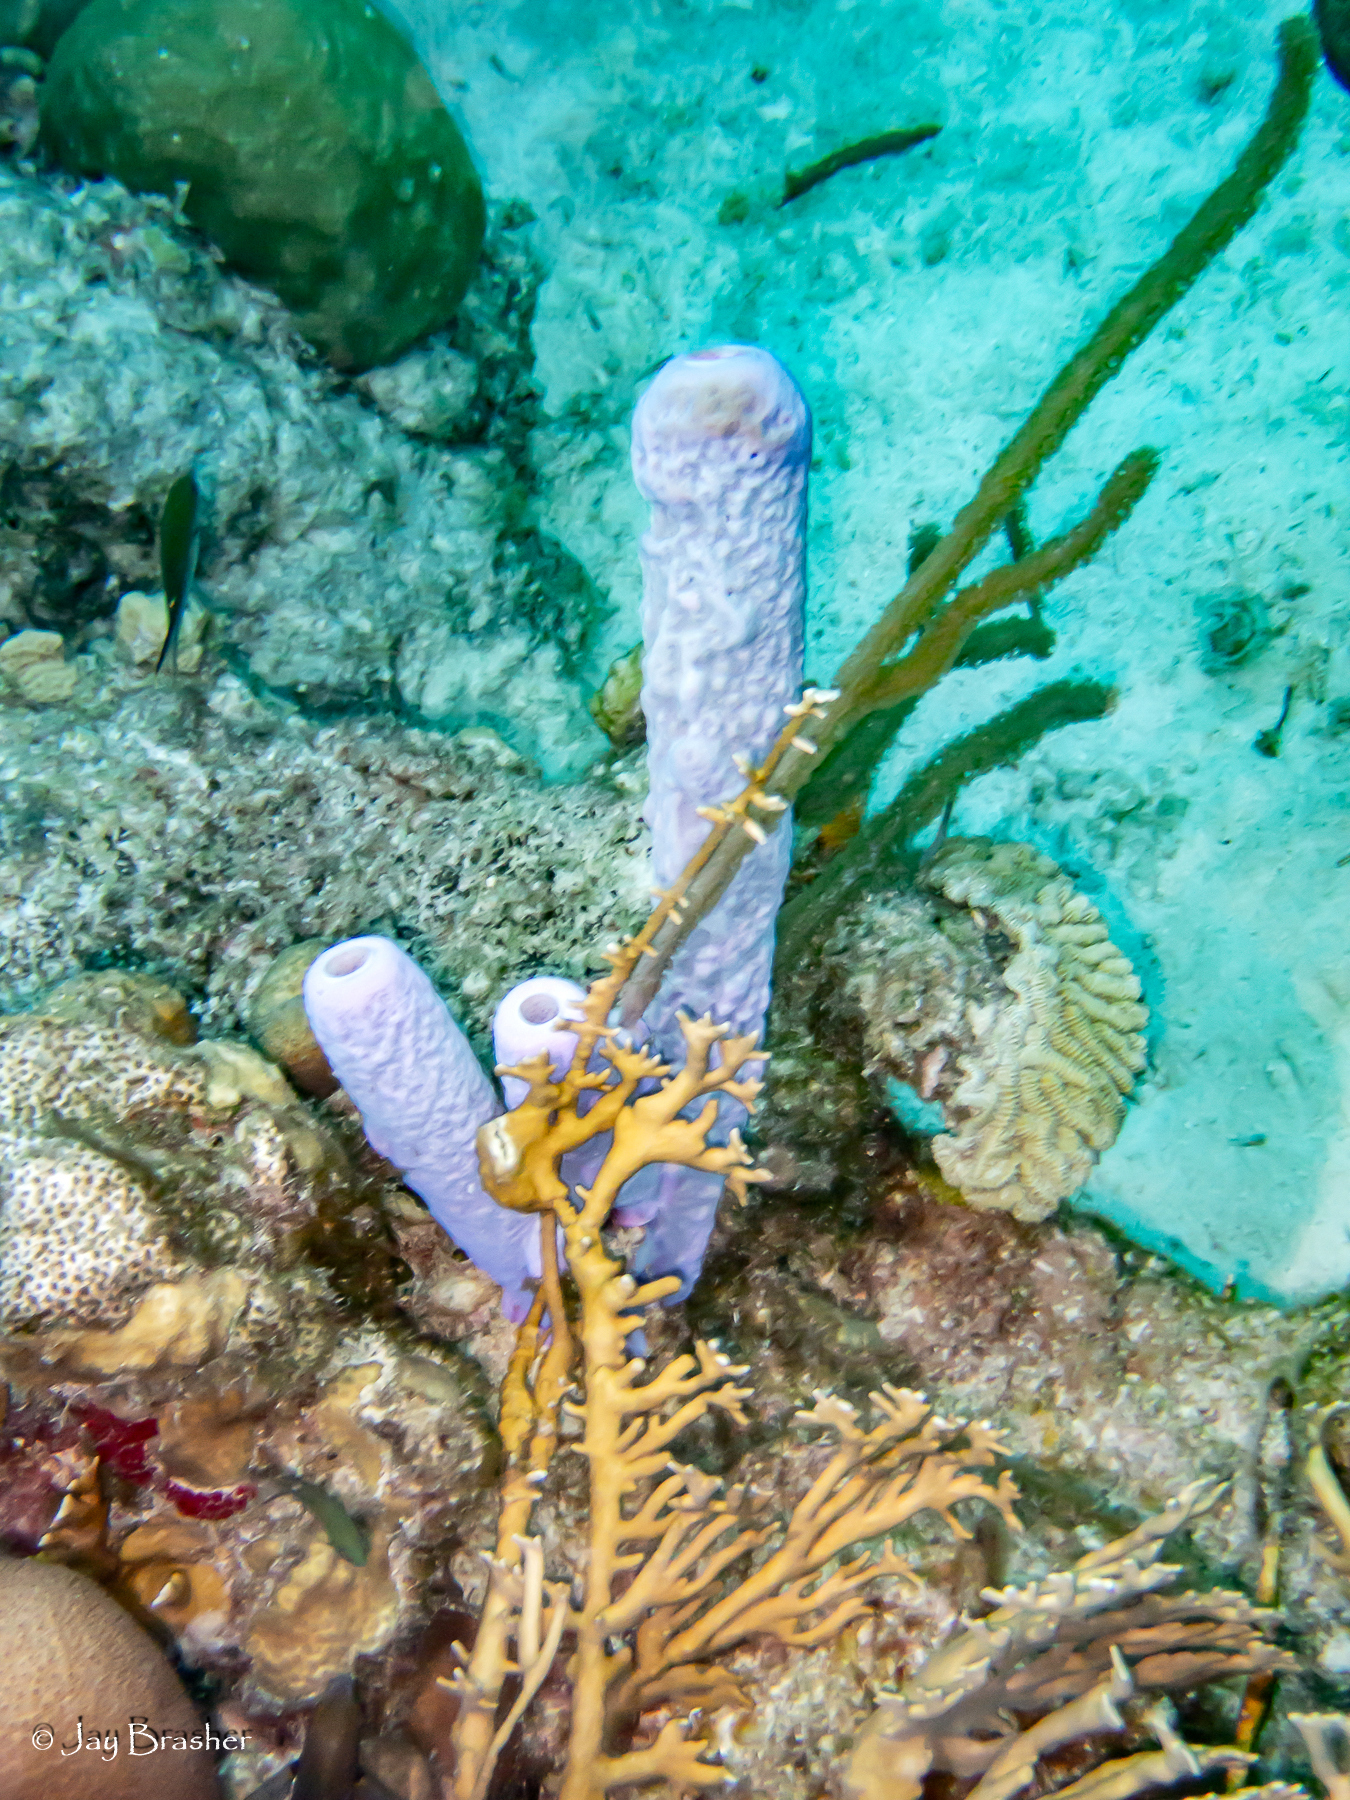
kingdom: Animalia
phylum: Porifera
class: Demospongiae
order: Verongiida
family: Aplysinidae
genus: Aplysina
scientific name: Aplysina archeri
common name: Stove-pipe sponge
